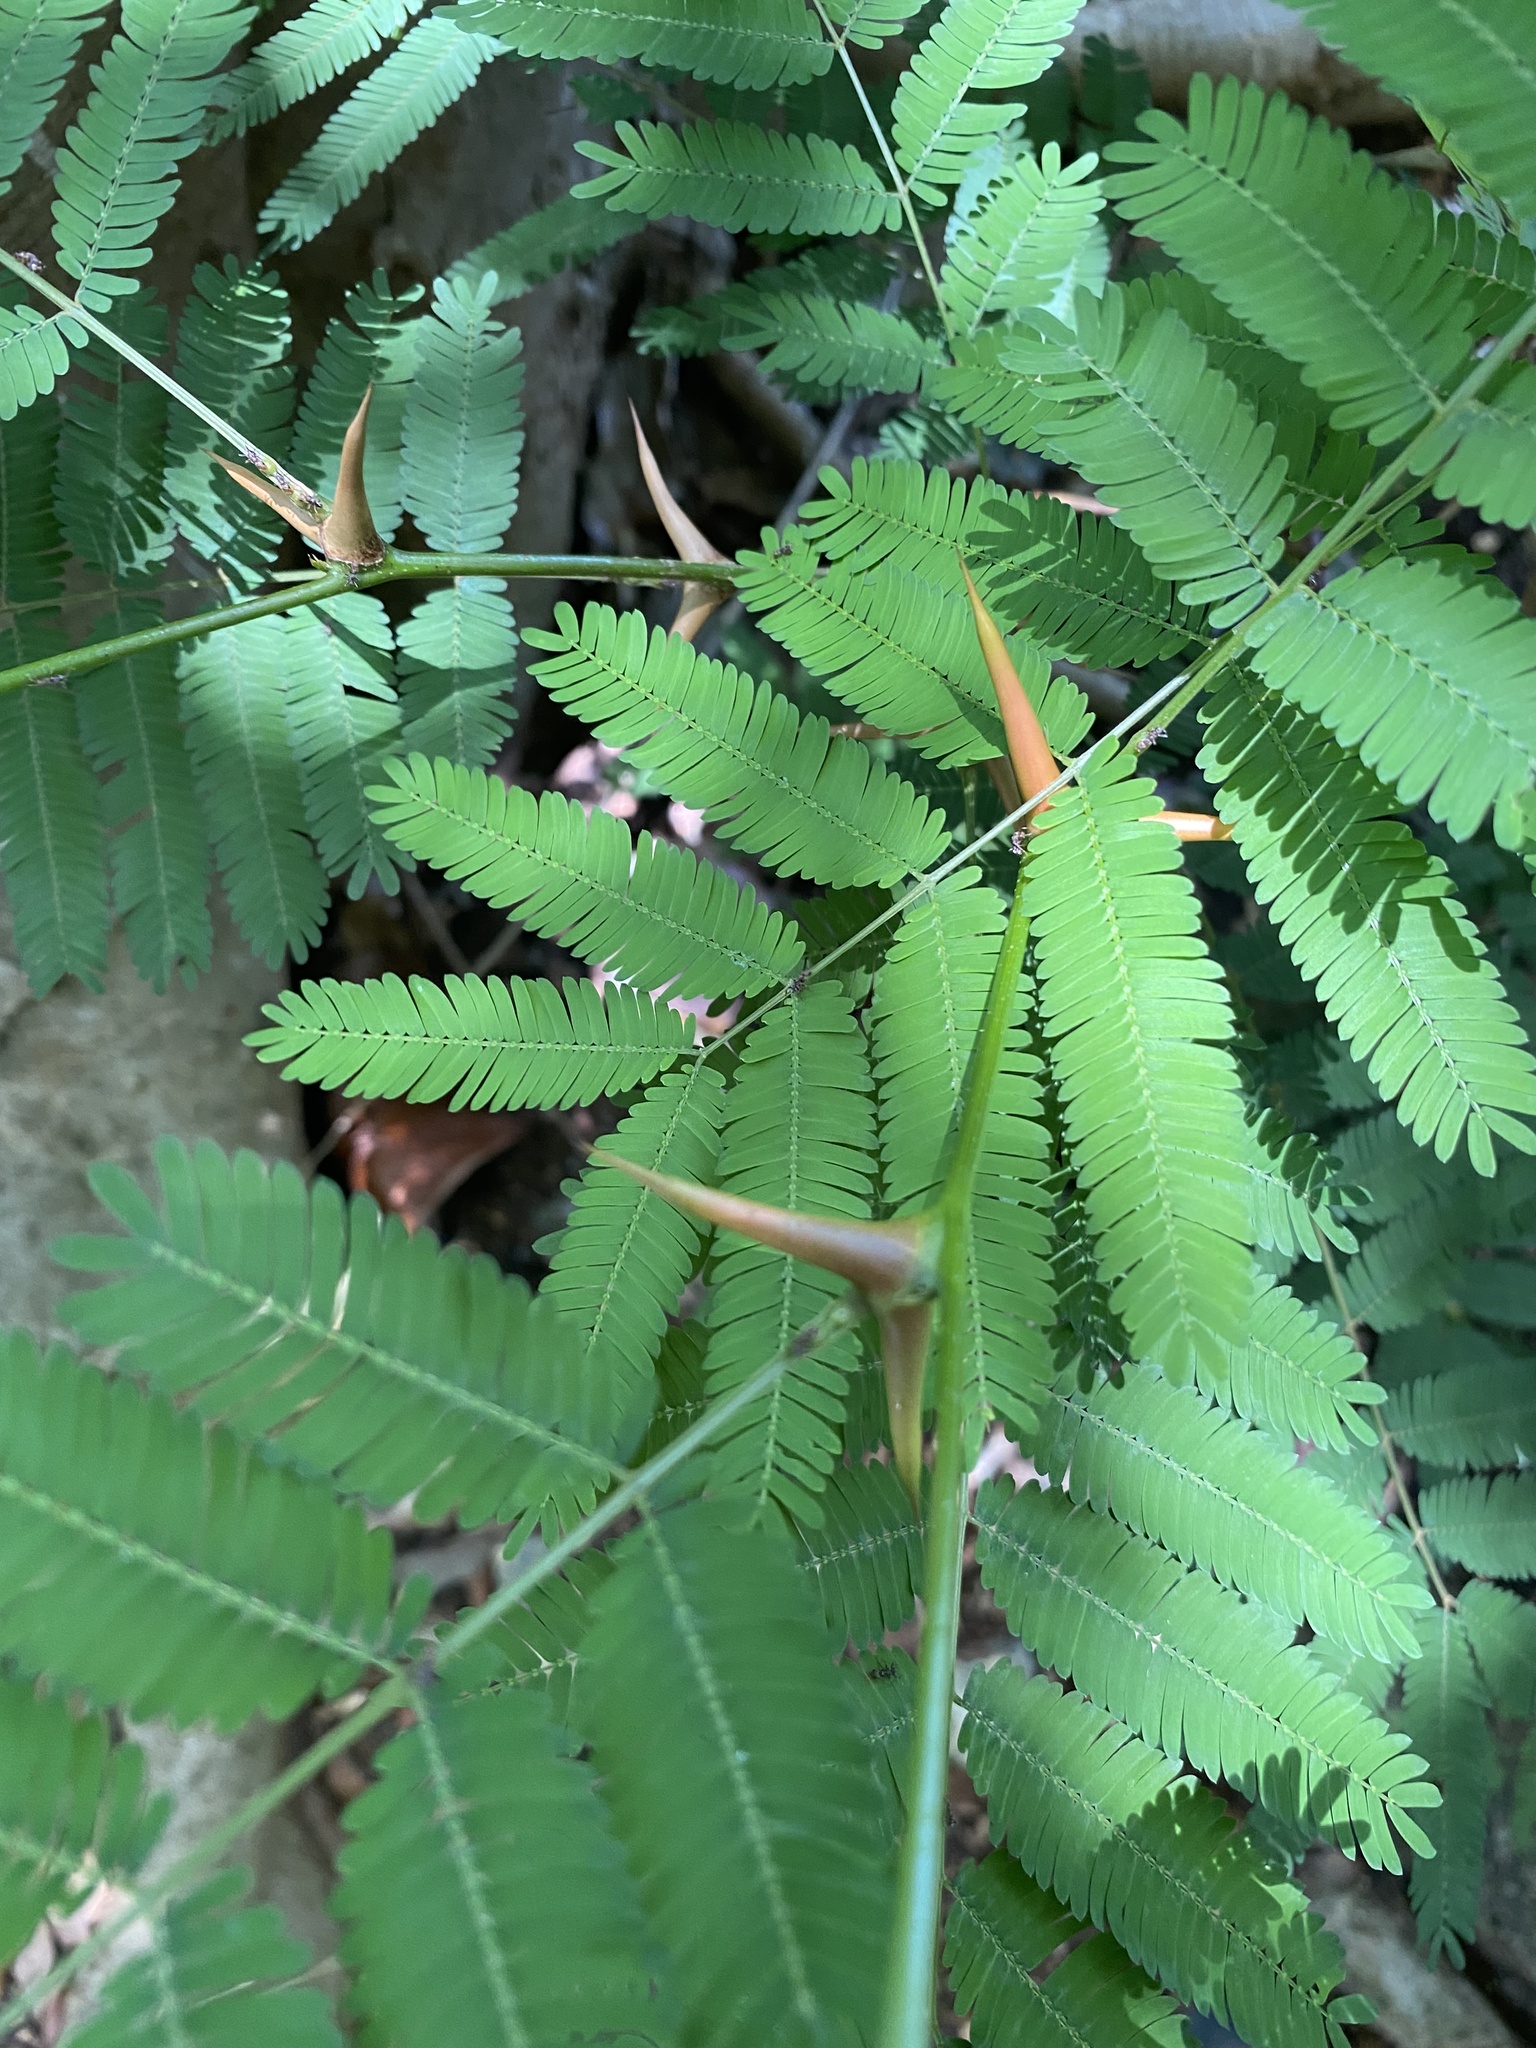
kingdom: Plantae
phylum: Tracheophyta
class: Magnoliopsida
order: Fabales
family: Fabaceae
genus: Vachellia
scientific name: Vachellia cornigera
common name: Bullhorn wattle
